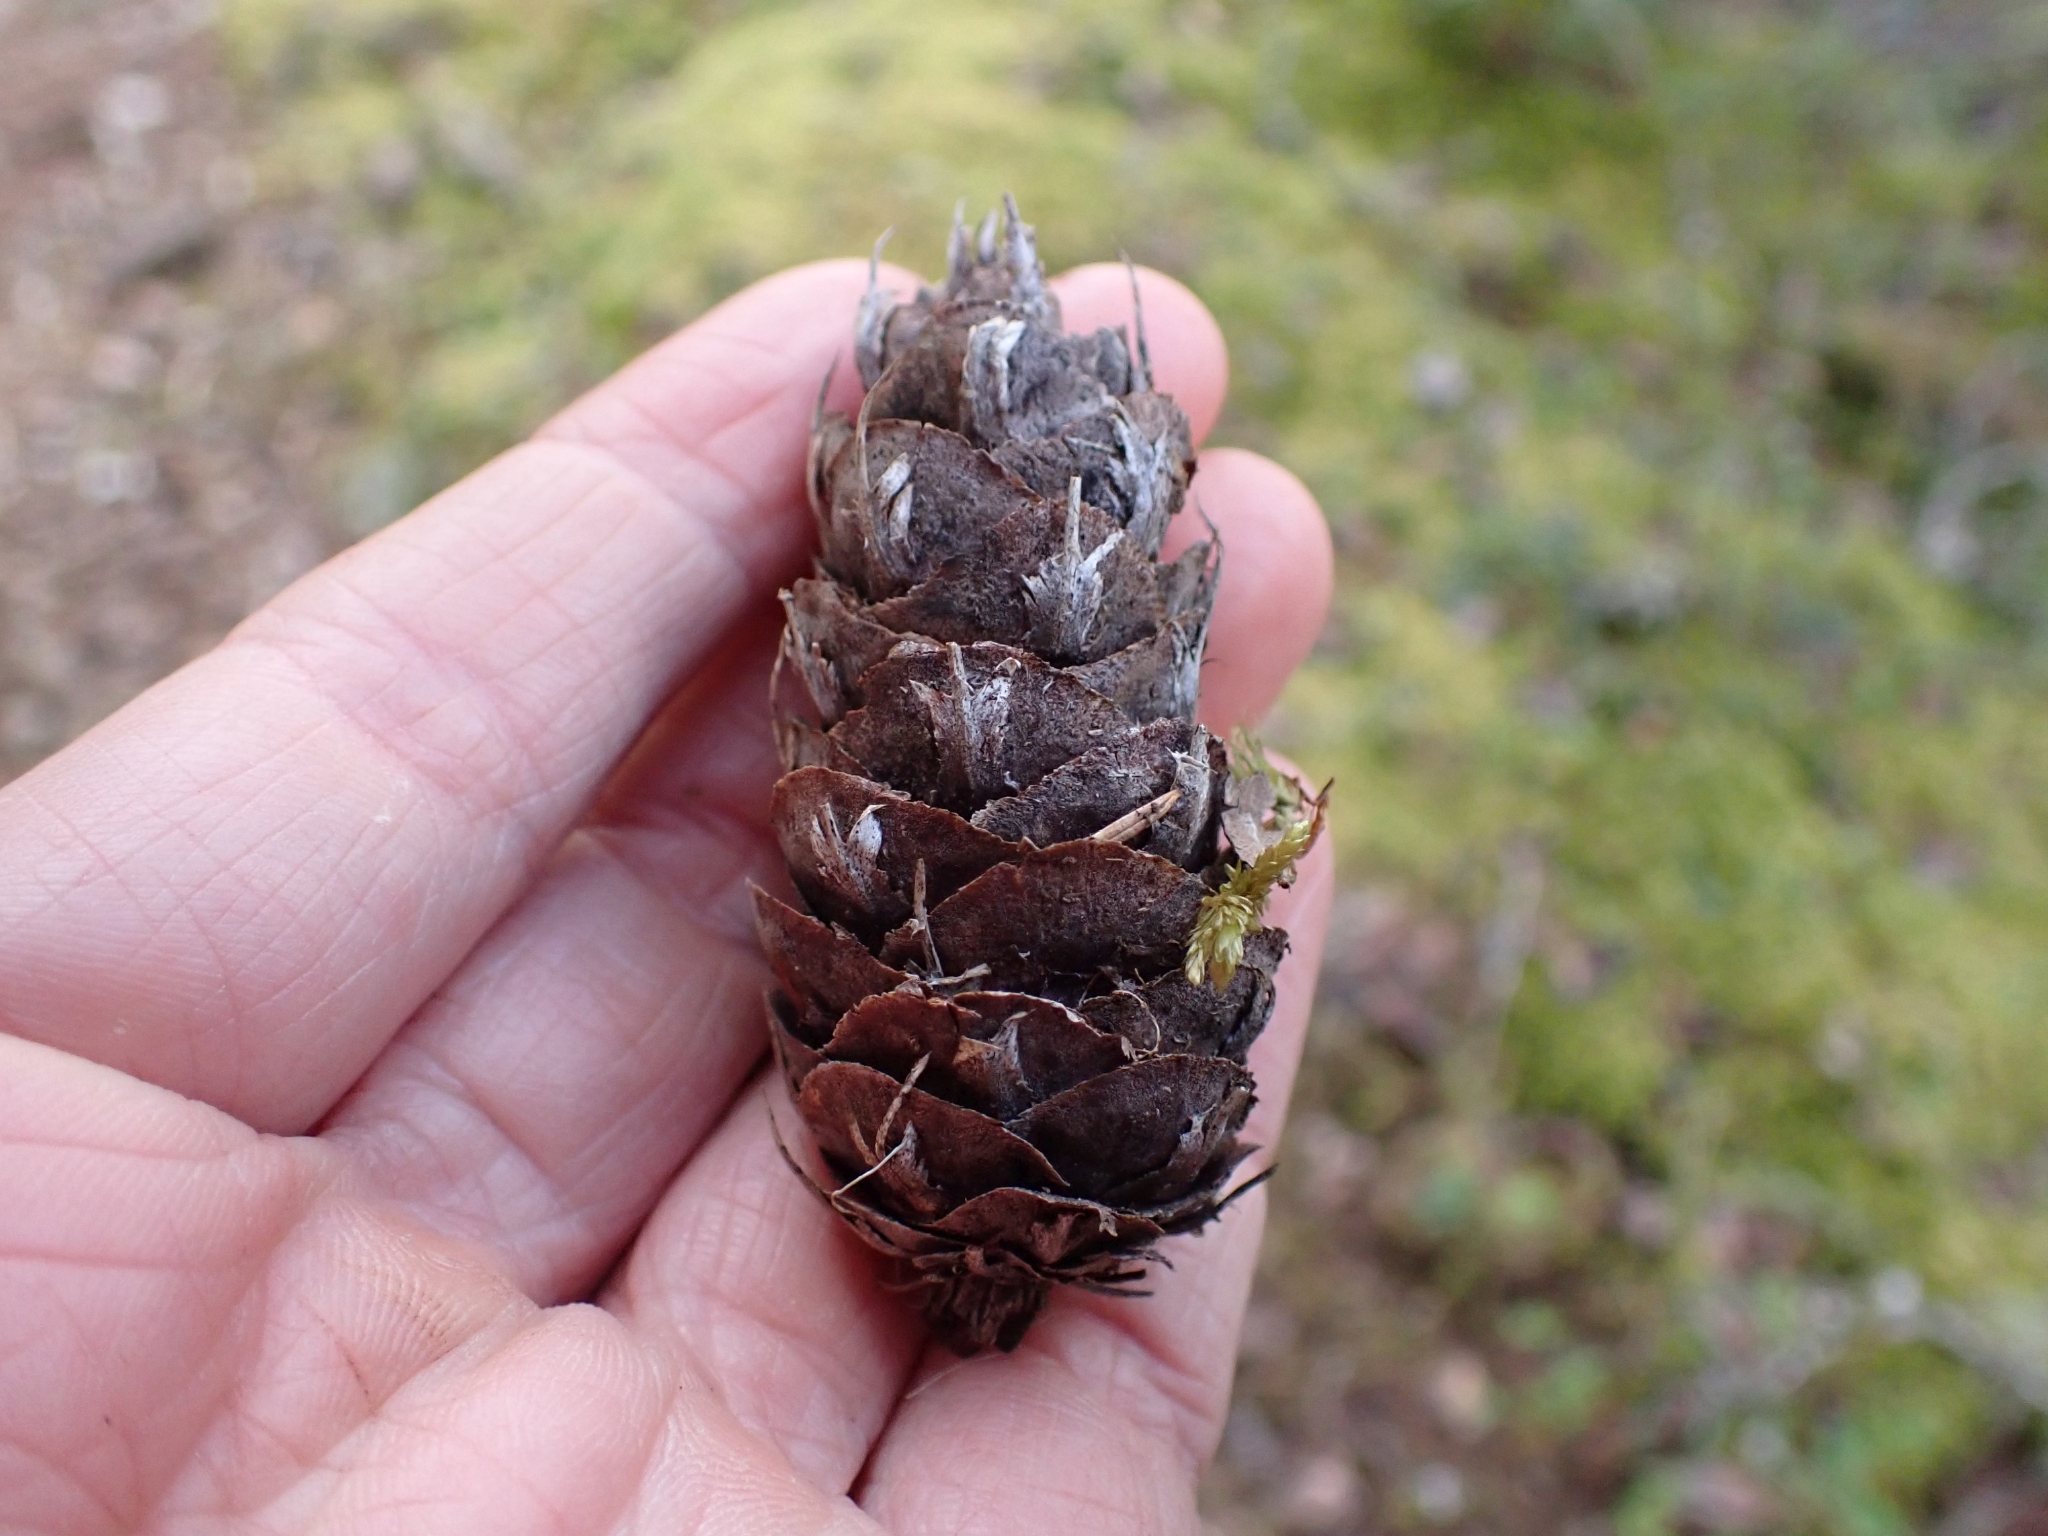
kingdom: Plantae
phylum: Tracheophyta
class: Pinopsida
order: Pinales
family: Pinaceae
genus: Pseudotsuga
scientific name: Pseudotsuga menziesii
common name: Douglas fir
